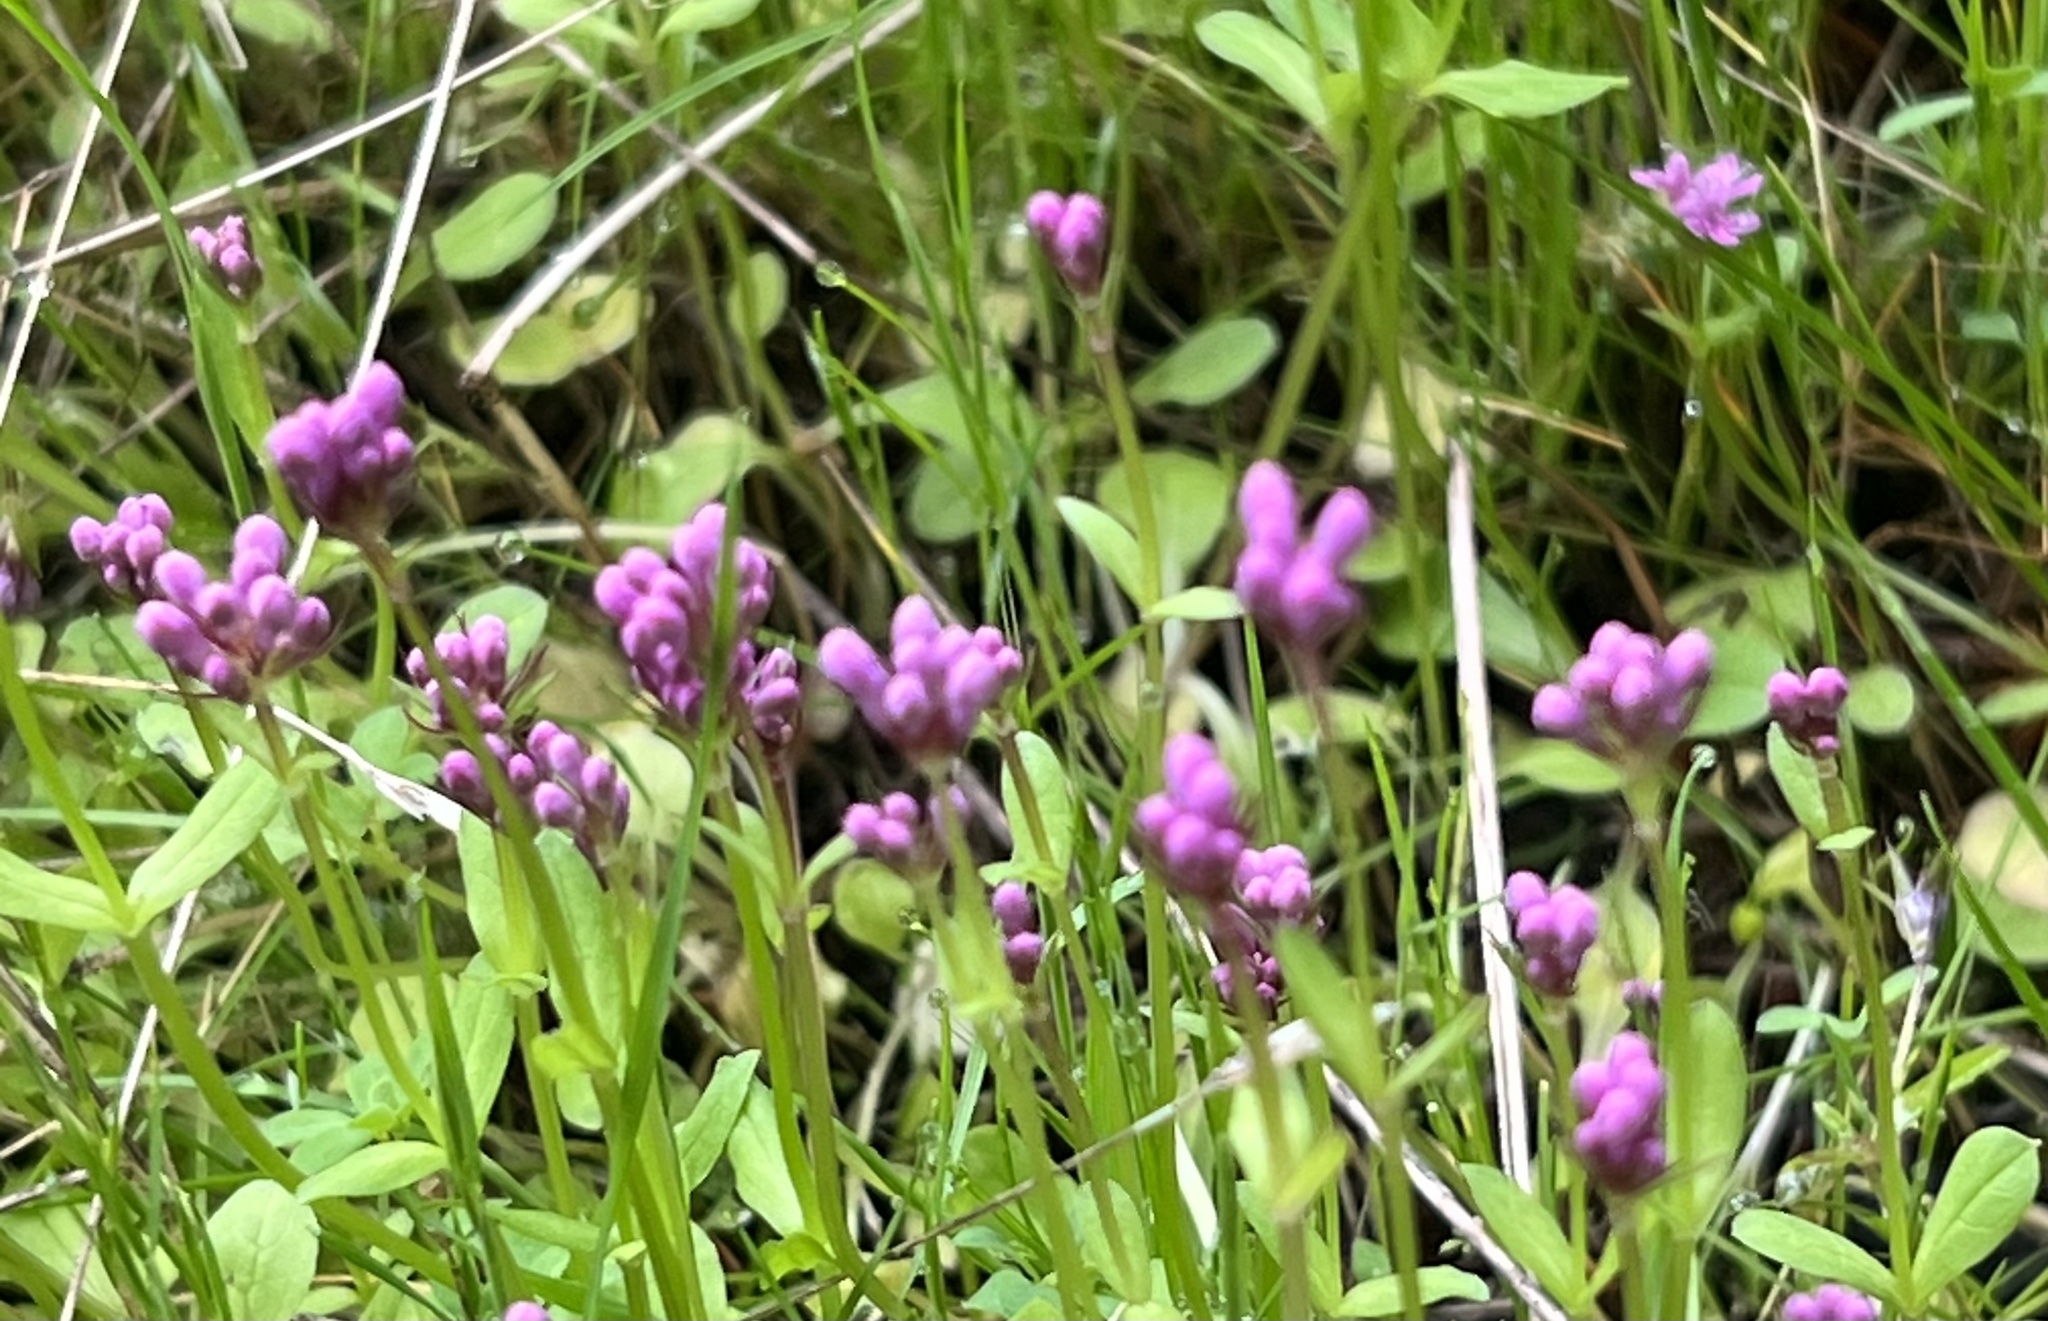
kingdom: Plantae
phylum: Tracheophyta
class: Magnoliopsida
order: Dipsacales
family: Caprifoliaceae
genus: Plectritis
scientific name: Plectritis congesta
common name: Pink plectritis
